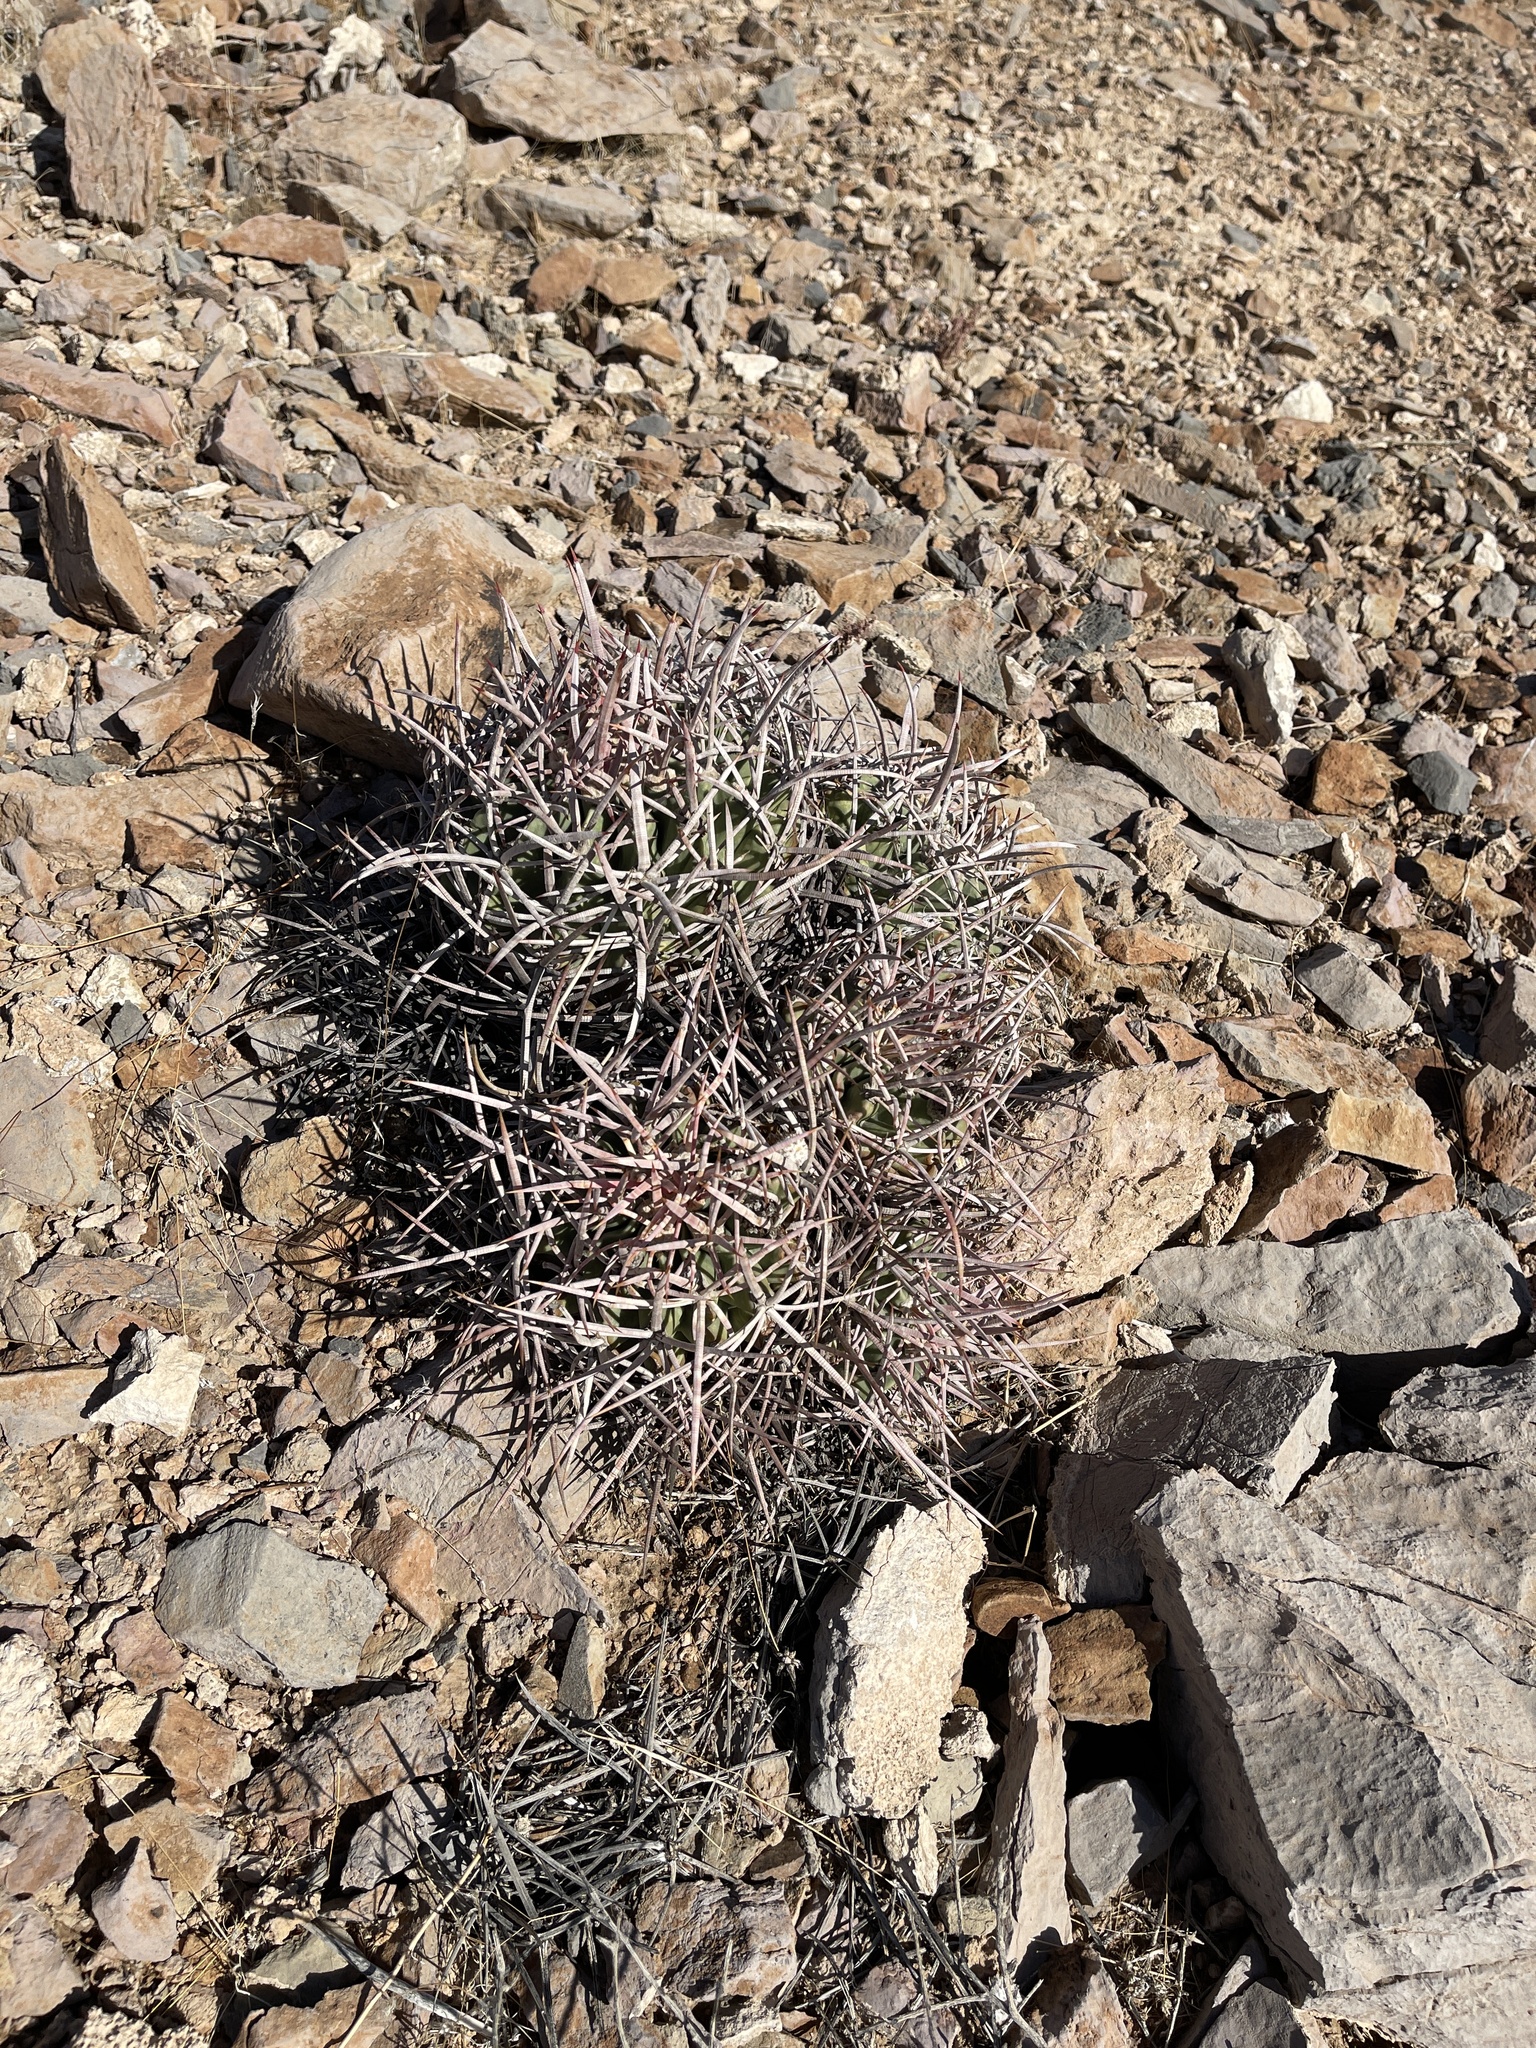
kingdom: Plantae
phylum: Tracheophyta
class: Magnoliopsida
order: Caryophyllales
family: Cactaceae
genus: Echinocactus
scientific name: Echinocactus polycephalus
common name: Cottontop cactus
